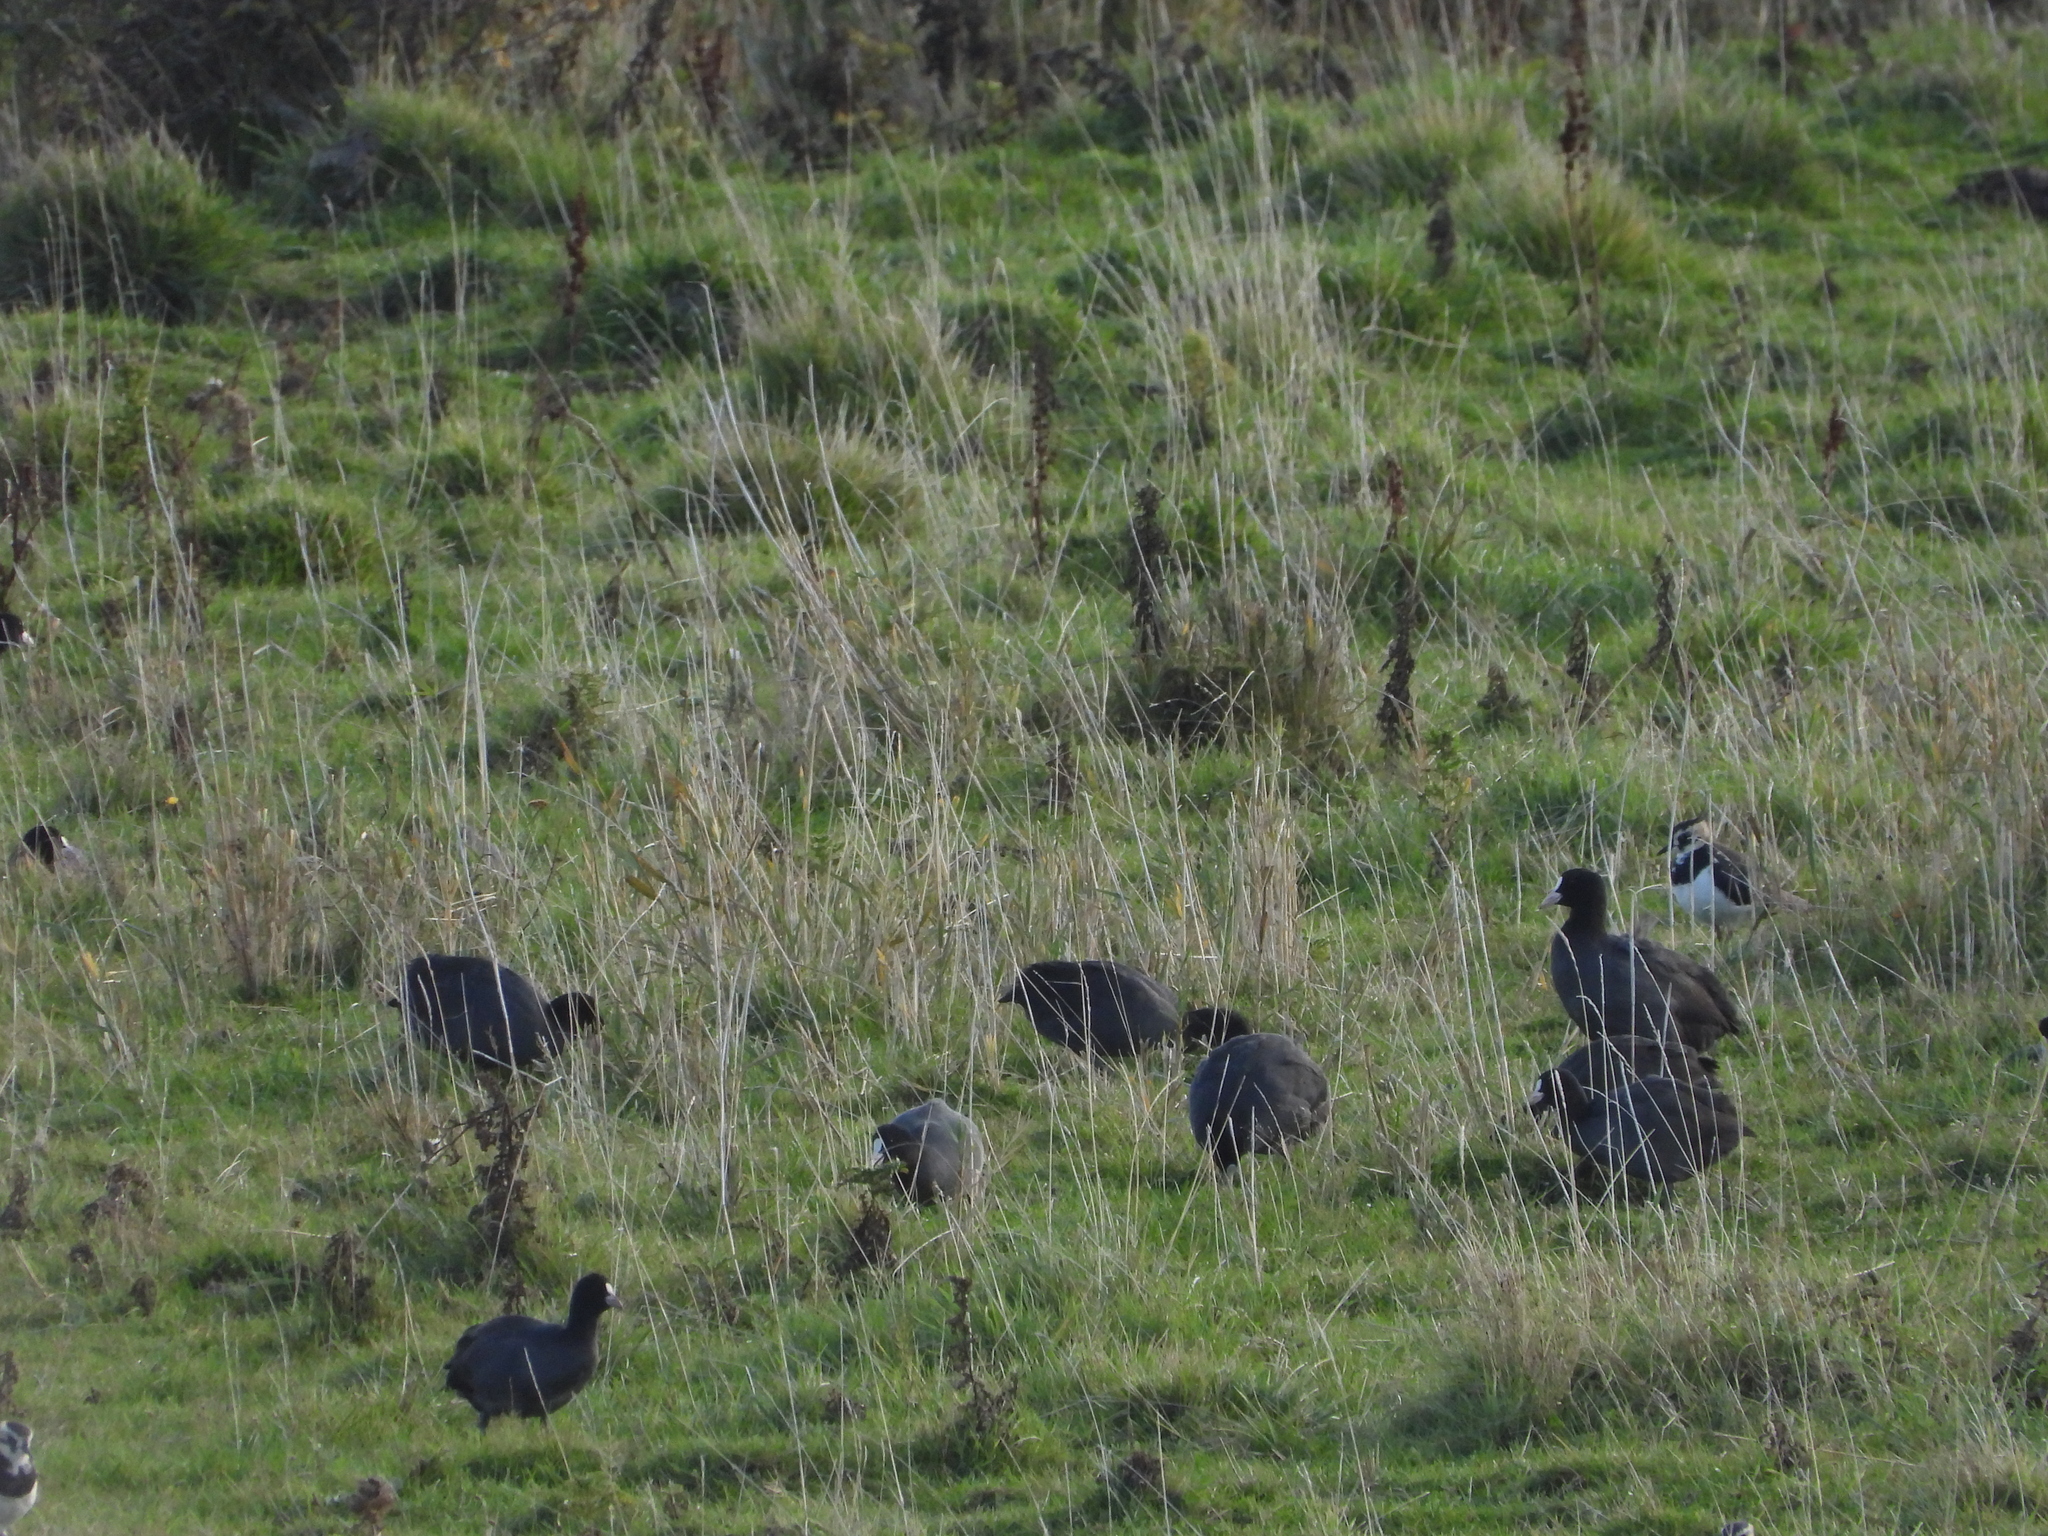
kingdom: Animalia
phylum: Chordata
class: Aves
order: Gruiformes
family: Rallidae
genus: Fulica
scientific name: Fulica atra
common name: Eurasian coot
